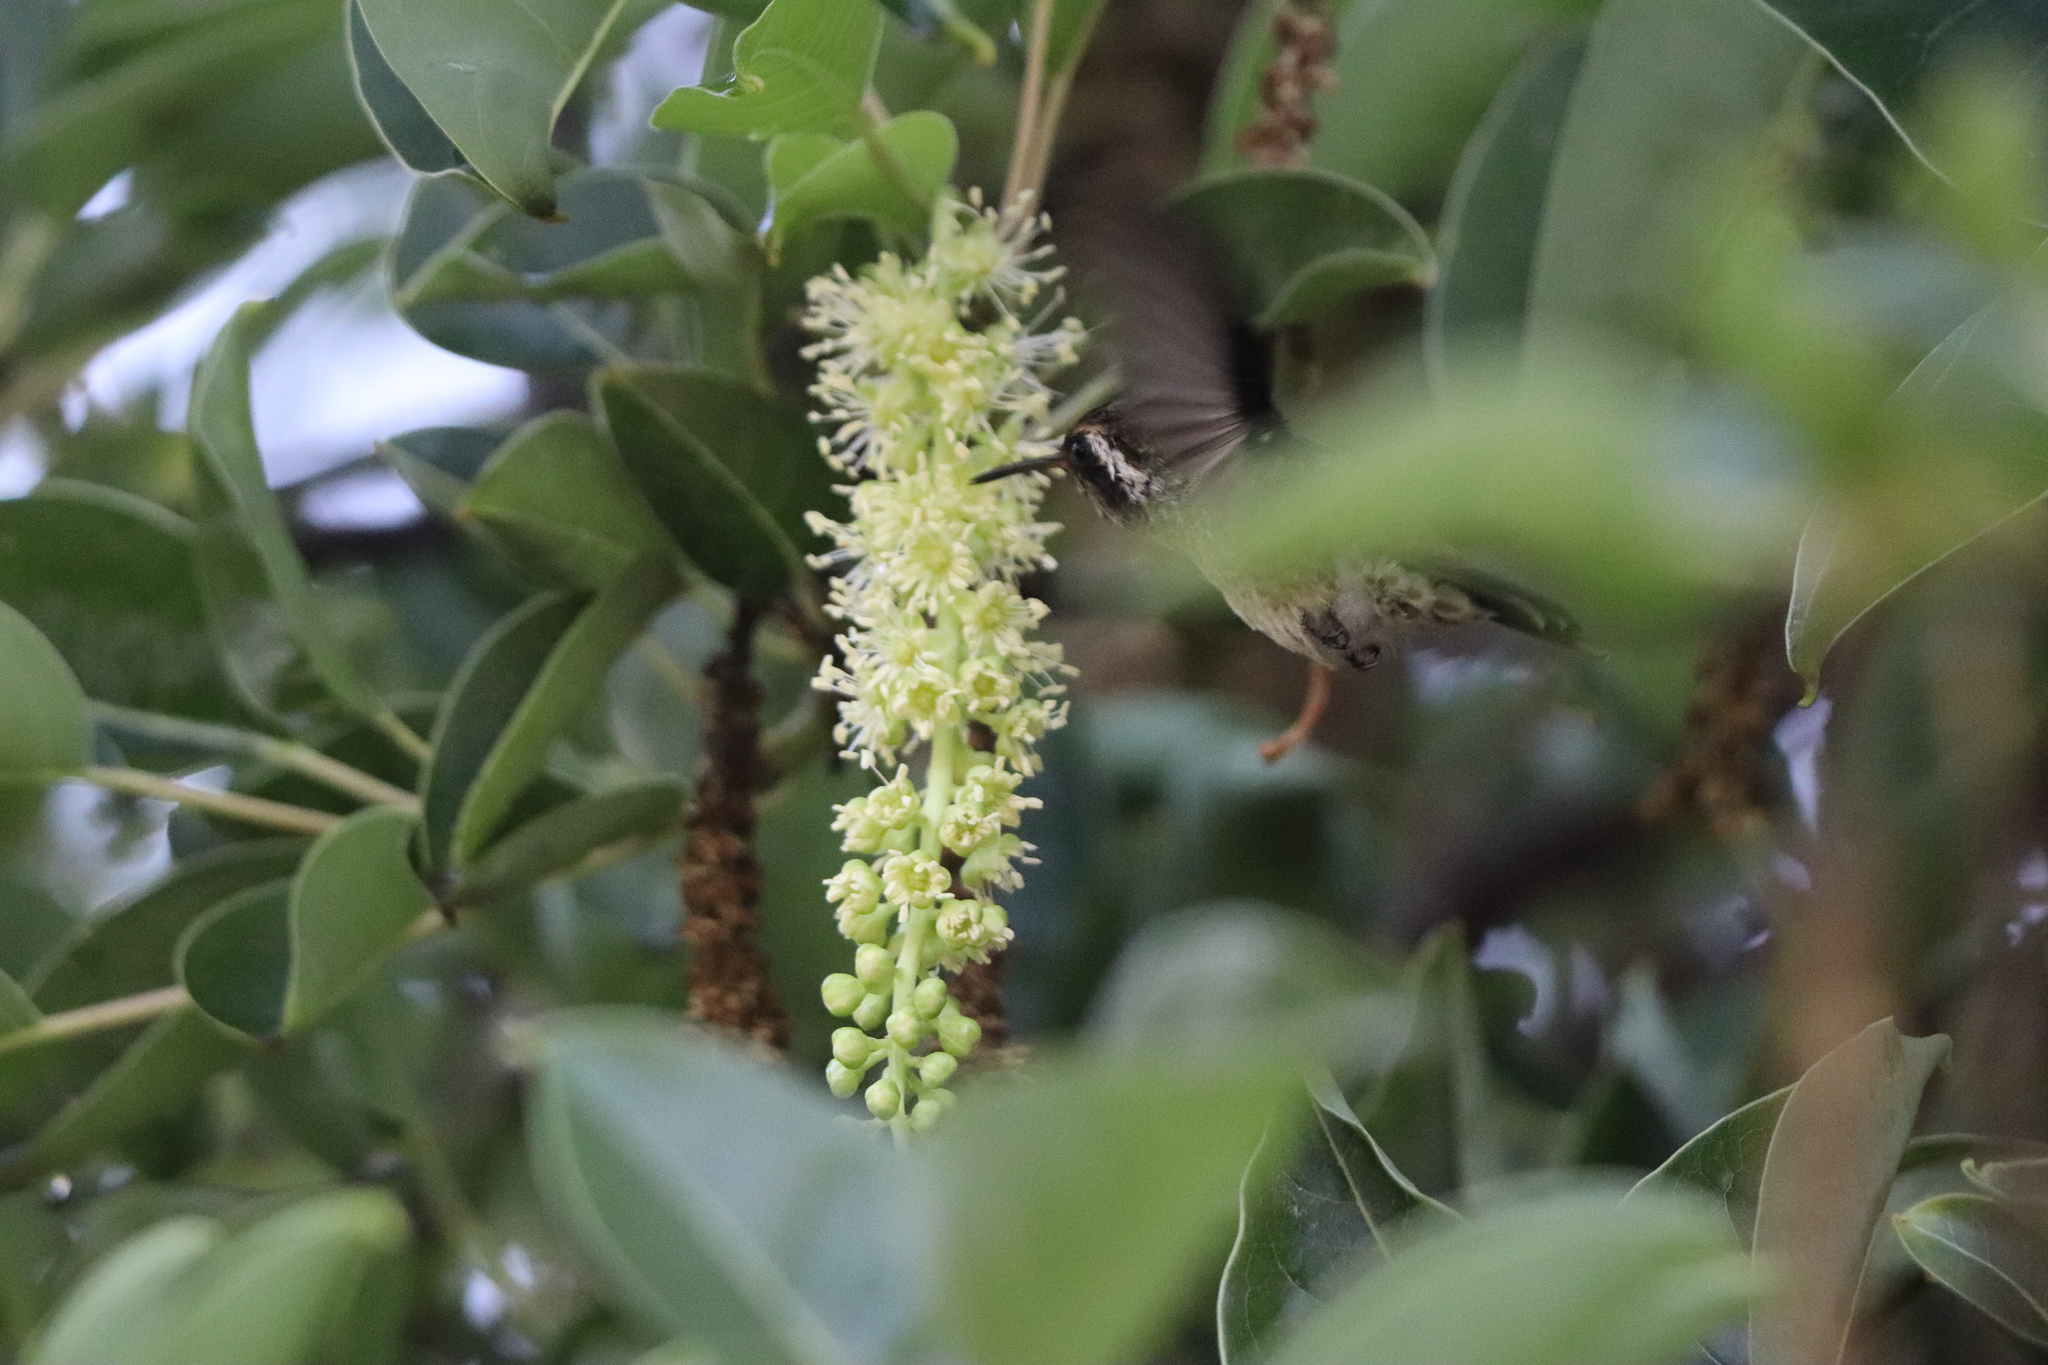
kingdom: Animalia
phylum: Chordata
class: Aves
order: Apodiformes
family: Trochilidae
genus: Basilinna
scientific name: Basilinna leucotis
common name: White-eared hummingbird
